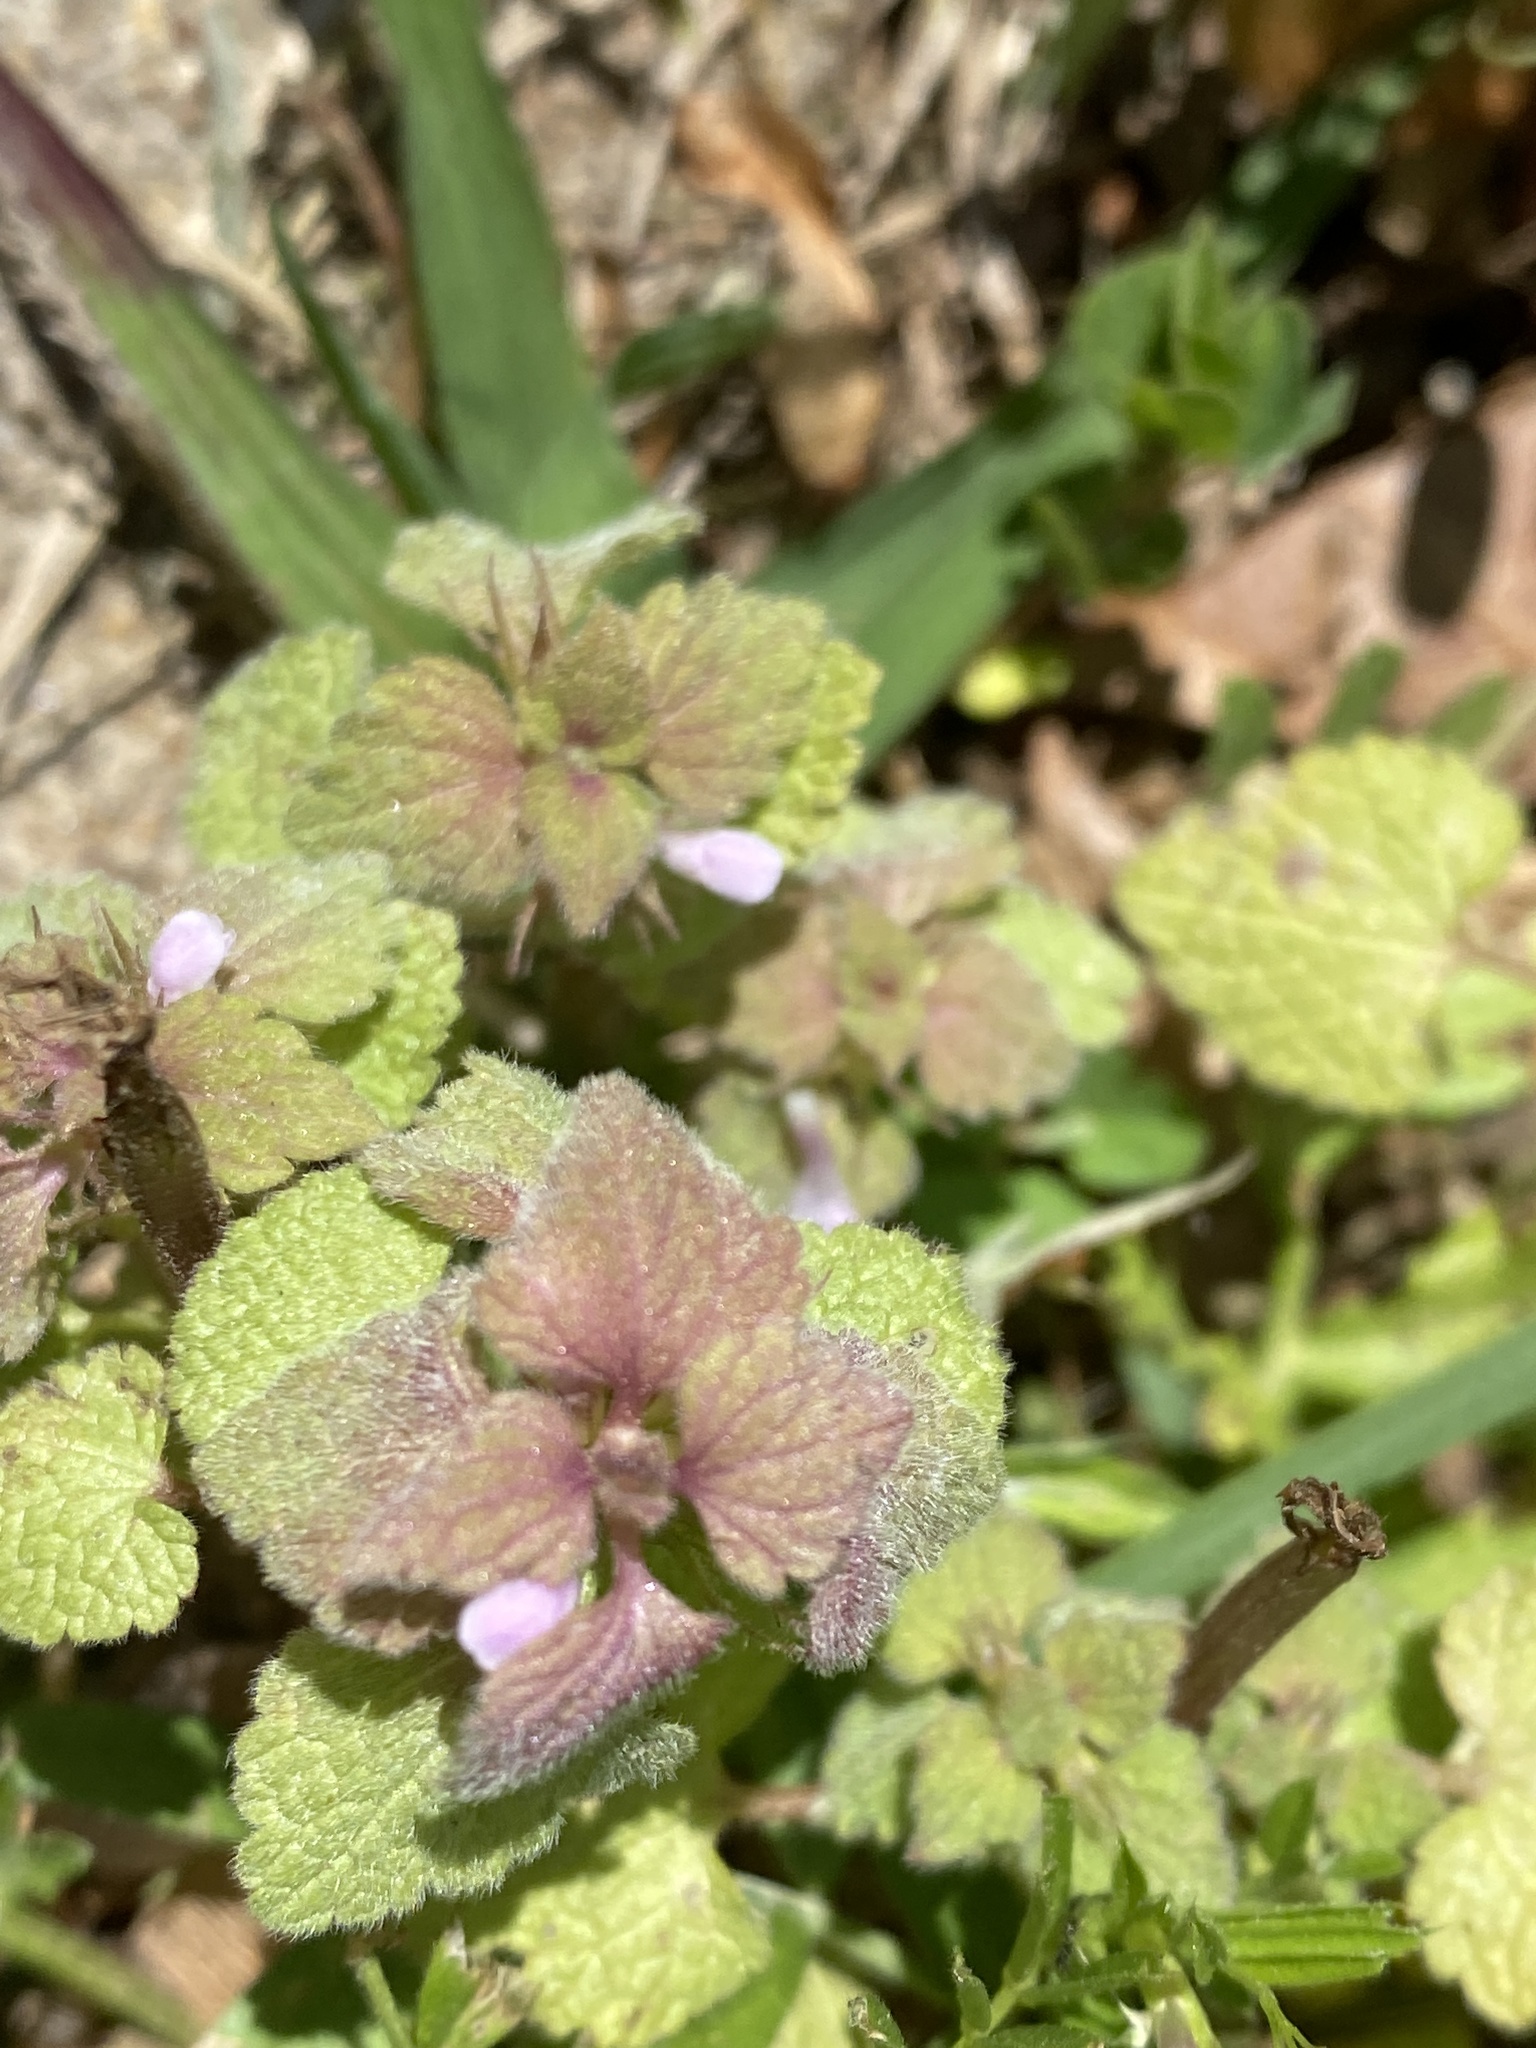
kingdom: Plantae
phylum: Tracheophyta
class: Magnoliopsida
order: Lamiales
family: Lamiaceae
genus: Lamium
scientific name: Lamium purpureum
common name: Red dead-nettle
